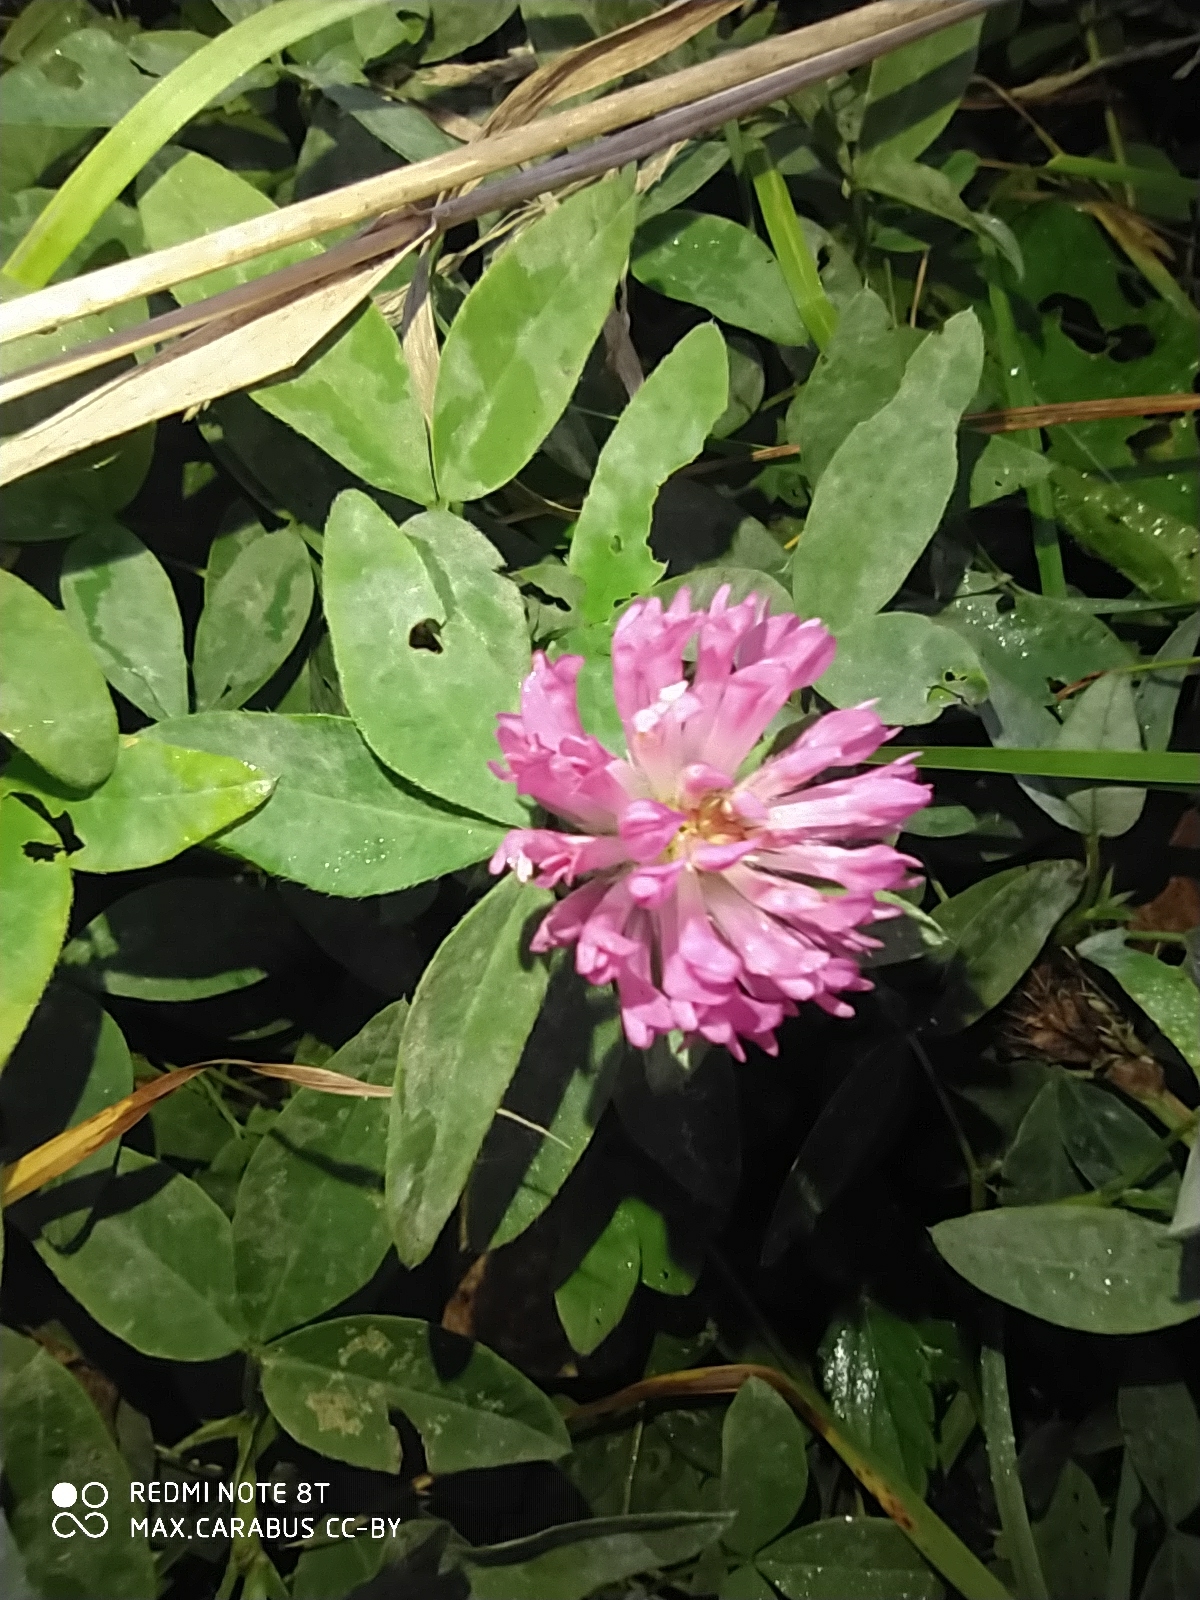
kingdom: Plantae
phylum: Tracheophyta
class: Magnoliopsida
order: Fabales
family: Fabaceae
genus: Trifolium
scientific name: Trifolium medium
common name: Zigzag clover
